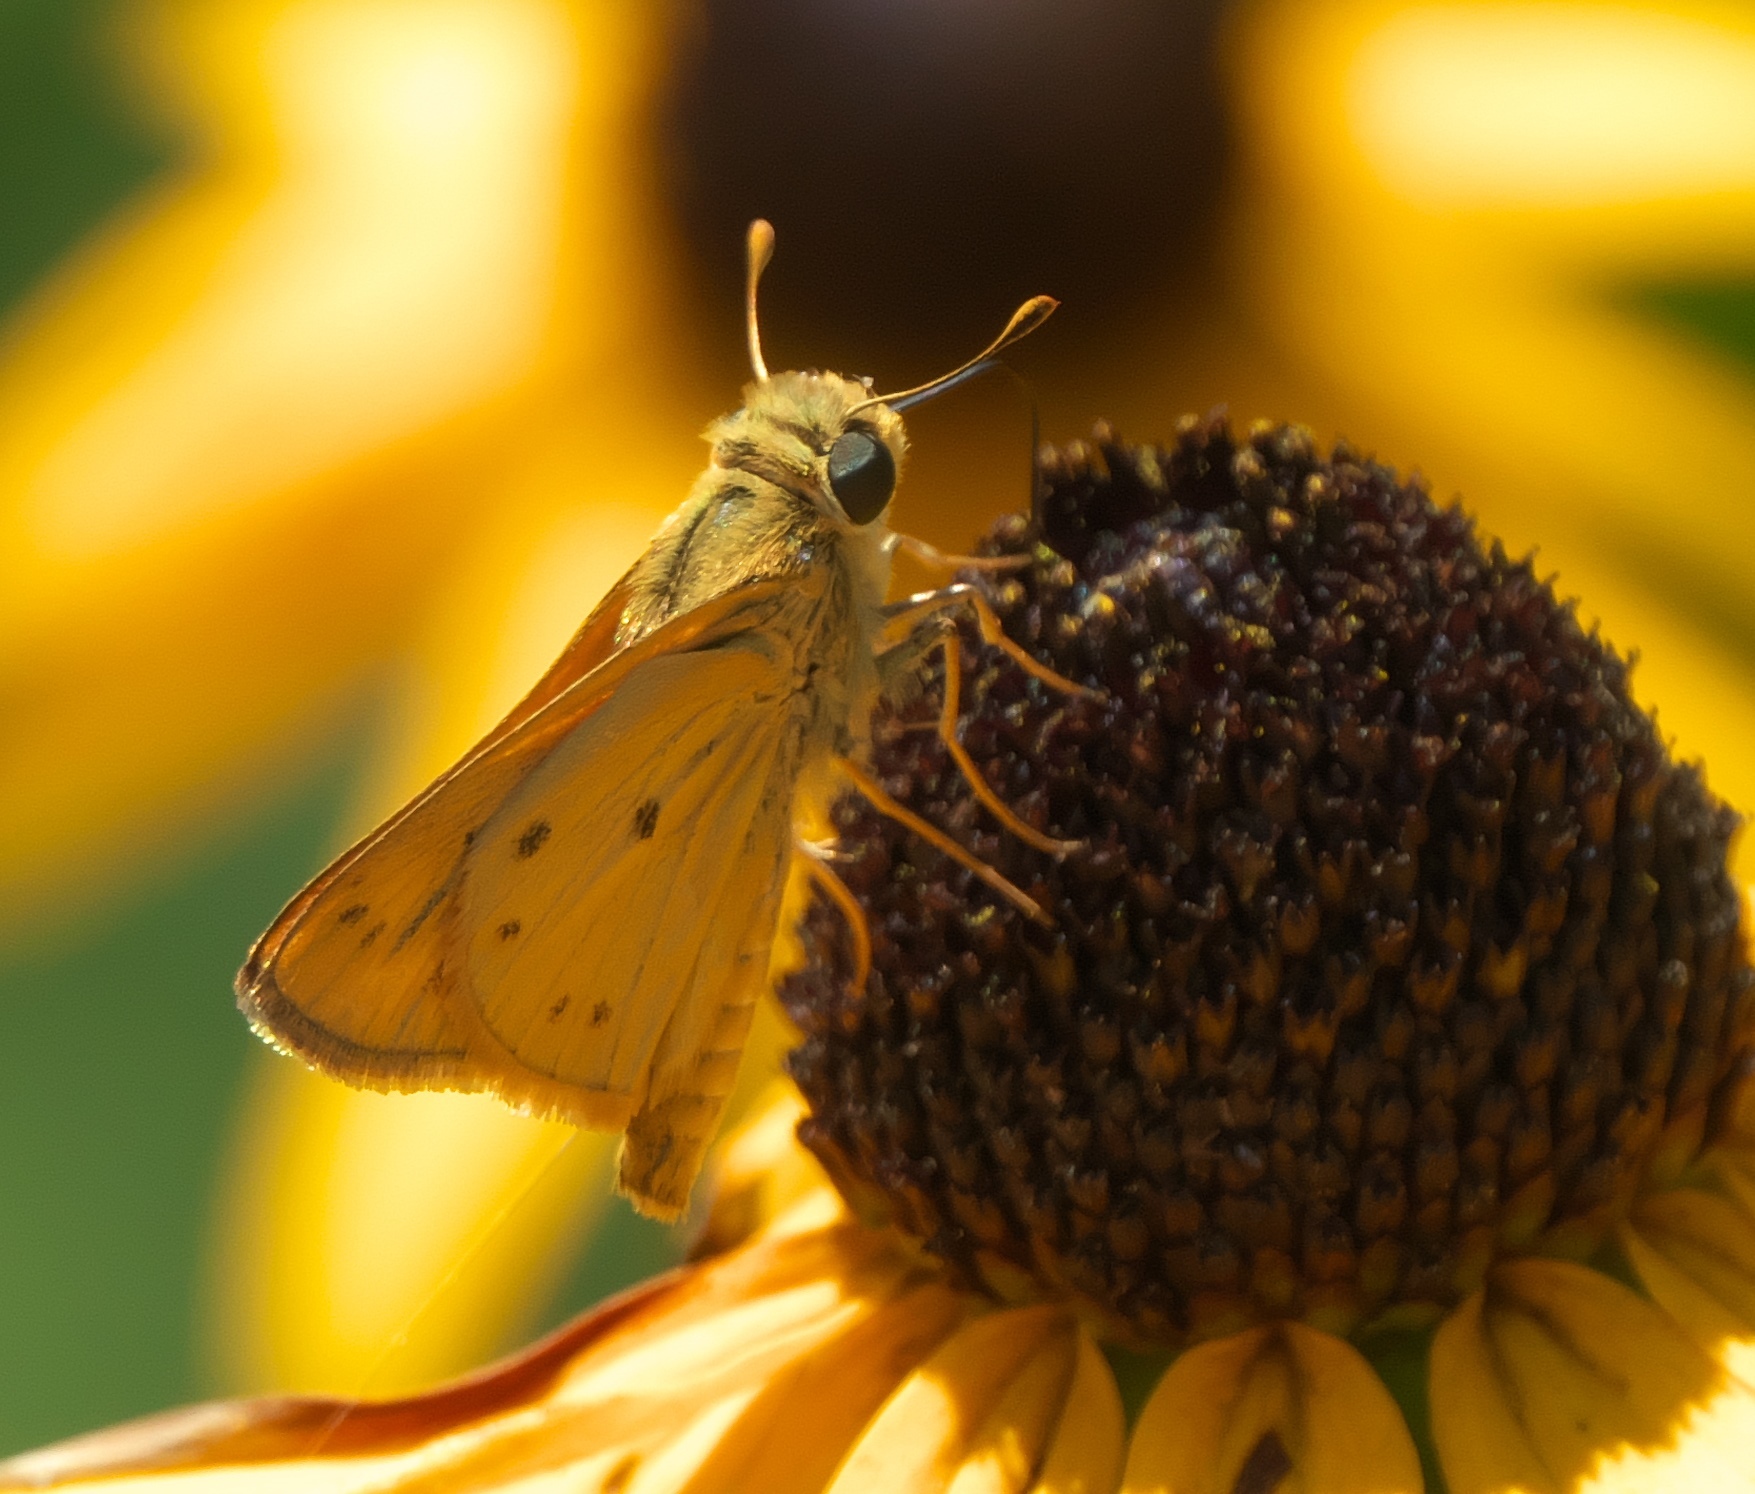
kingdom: Animalia
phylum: Arthropoda
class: Insecta
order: Lepidoptera
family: Hesperiidae
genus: Hylephila
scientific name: Hylephila phyleus
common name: Fiery skipper
